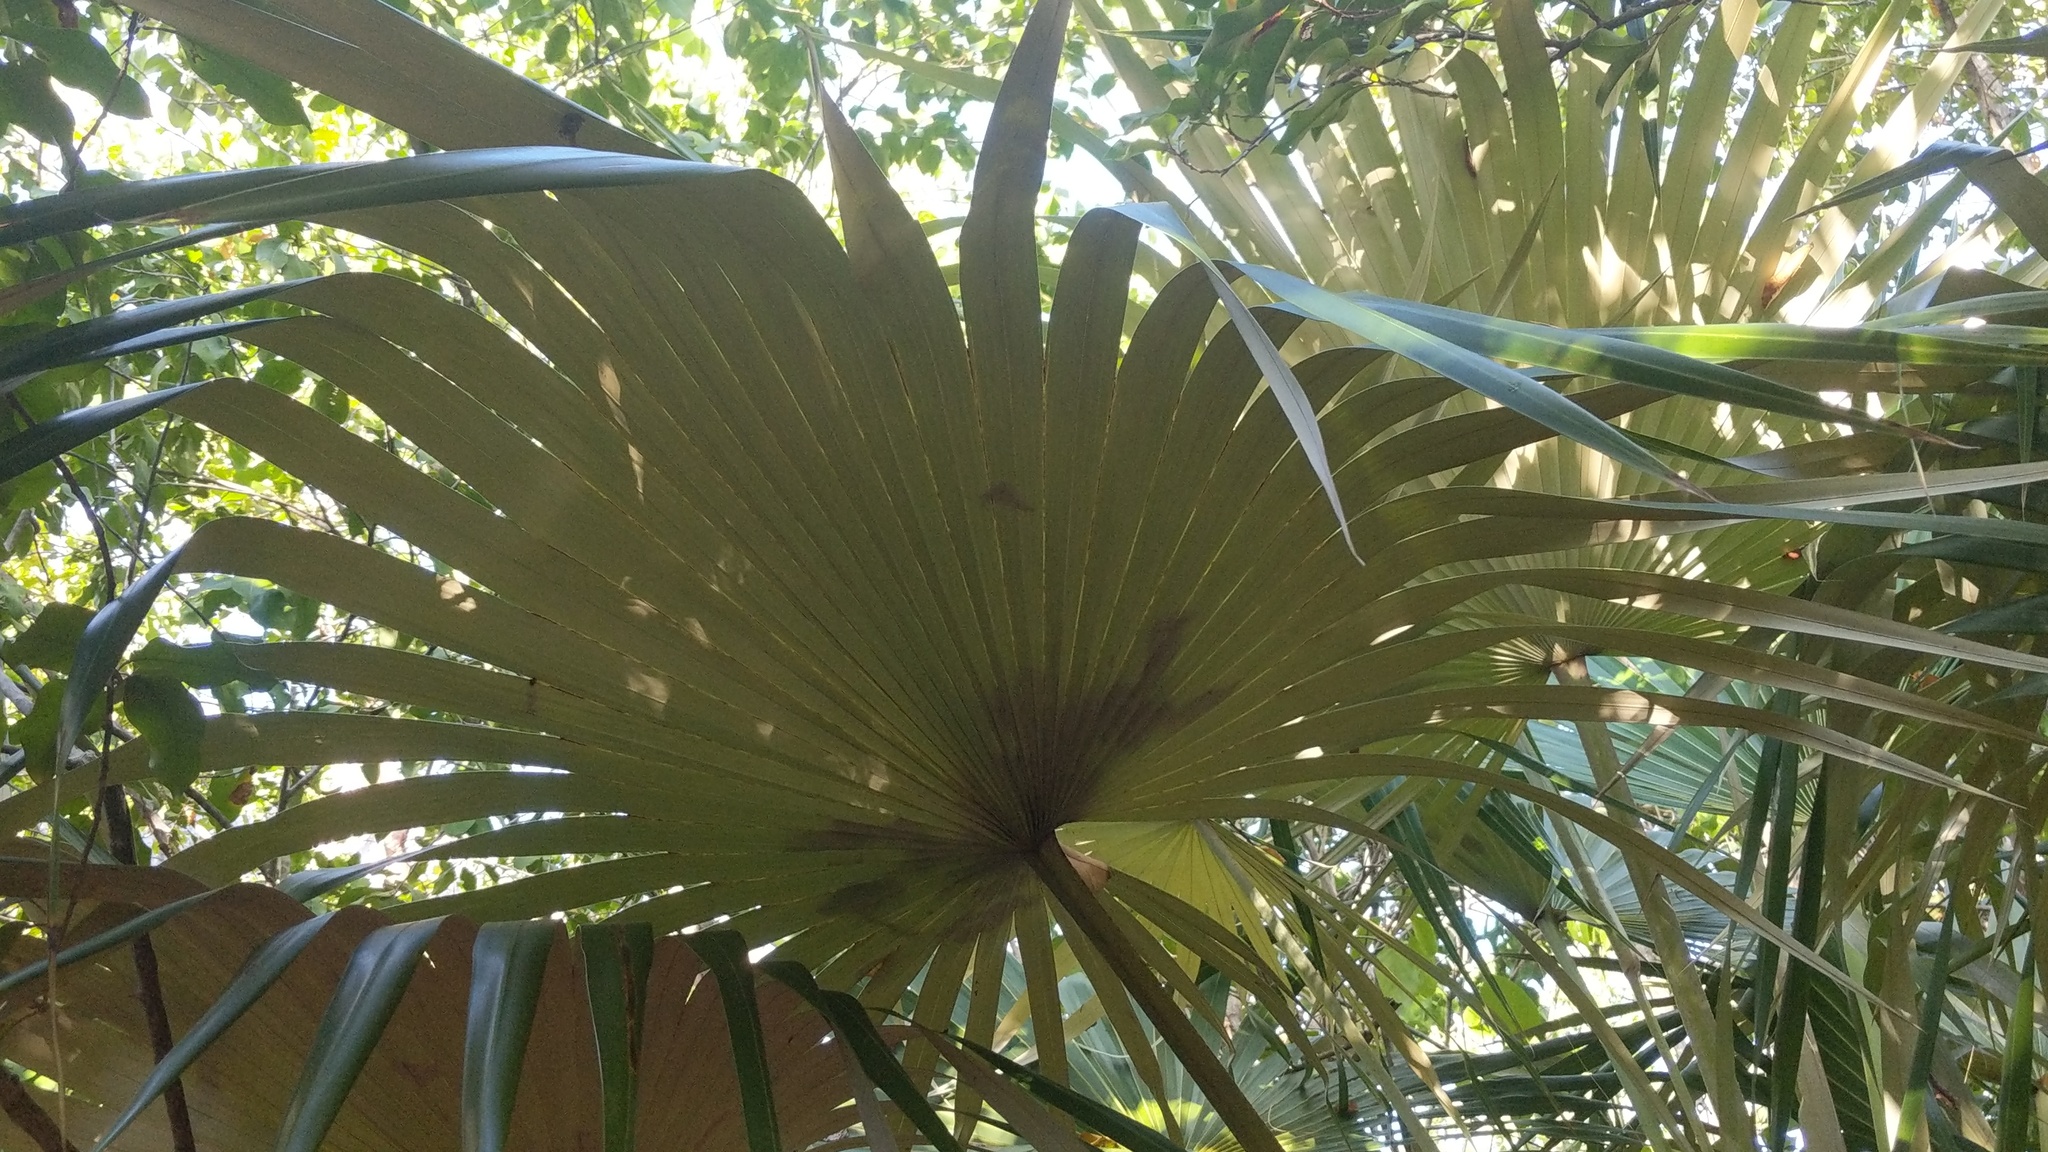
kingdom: Plantae
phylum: Tracheophyta
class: Liliopsida
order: Arecales
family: Arecaceae
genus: Coccothrinax
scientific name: Coccothrinax proctorii
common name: Silver palm
